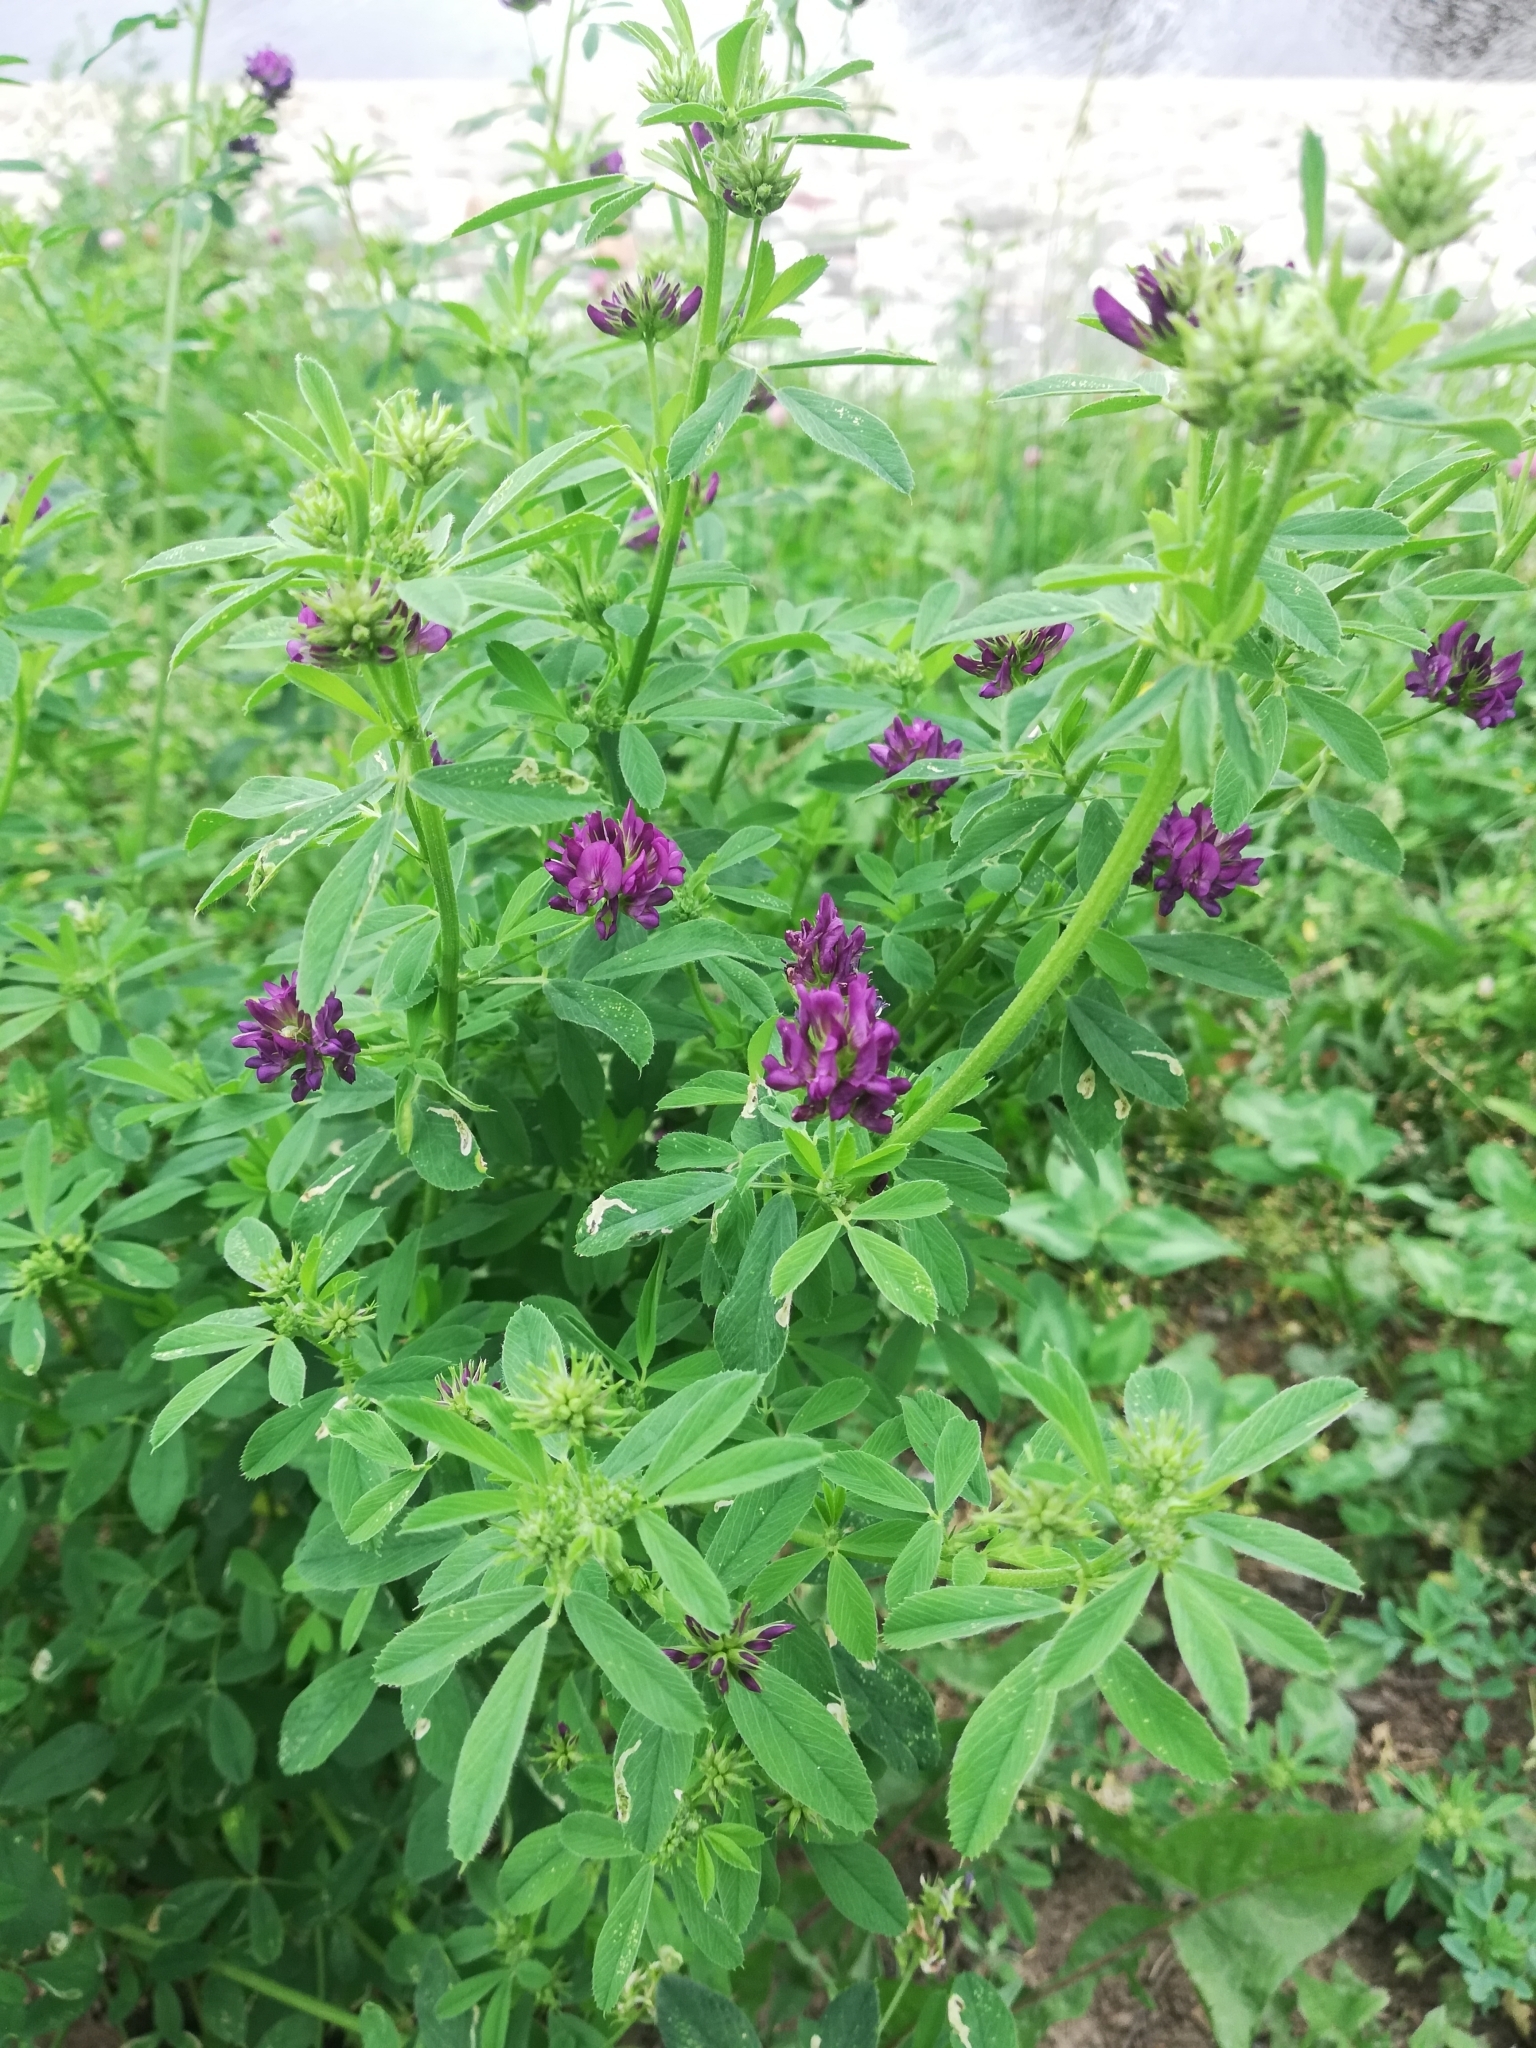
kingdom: Plantae
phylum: Tracheophyta
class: Magnoliopsida
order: Fabales
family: Fabaceae
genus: Medicago
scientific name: Medicago sativa
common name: Alfalfa
